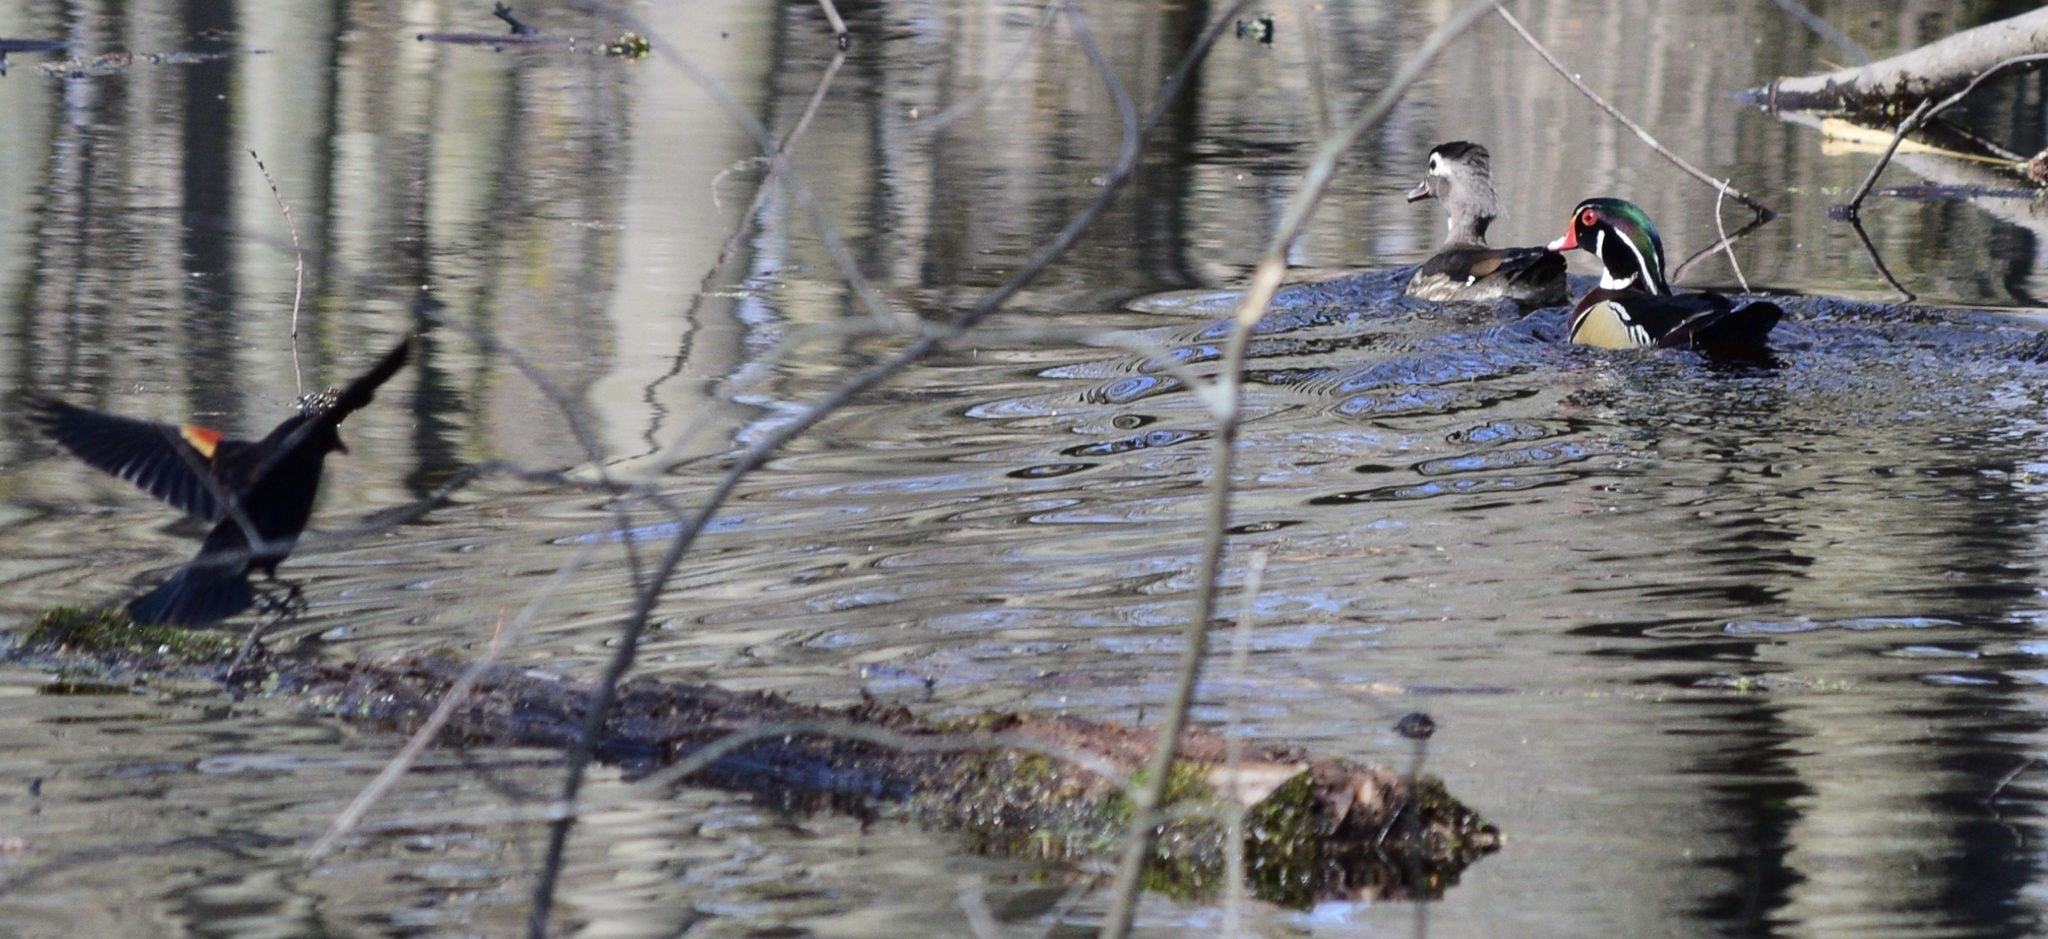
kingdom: Animalia
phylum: Chordata
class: Aves
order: Anseriformes
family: Anatidae
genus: Aix
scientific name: Aix sponsa
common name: Wood duck
